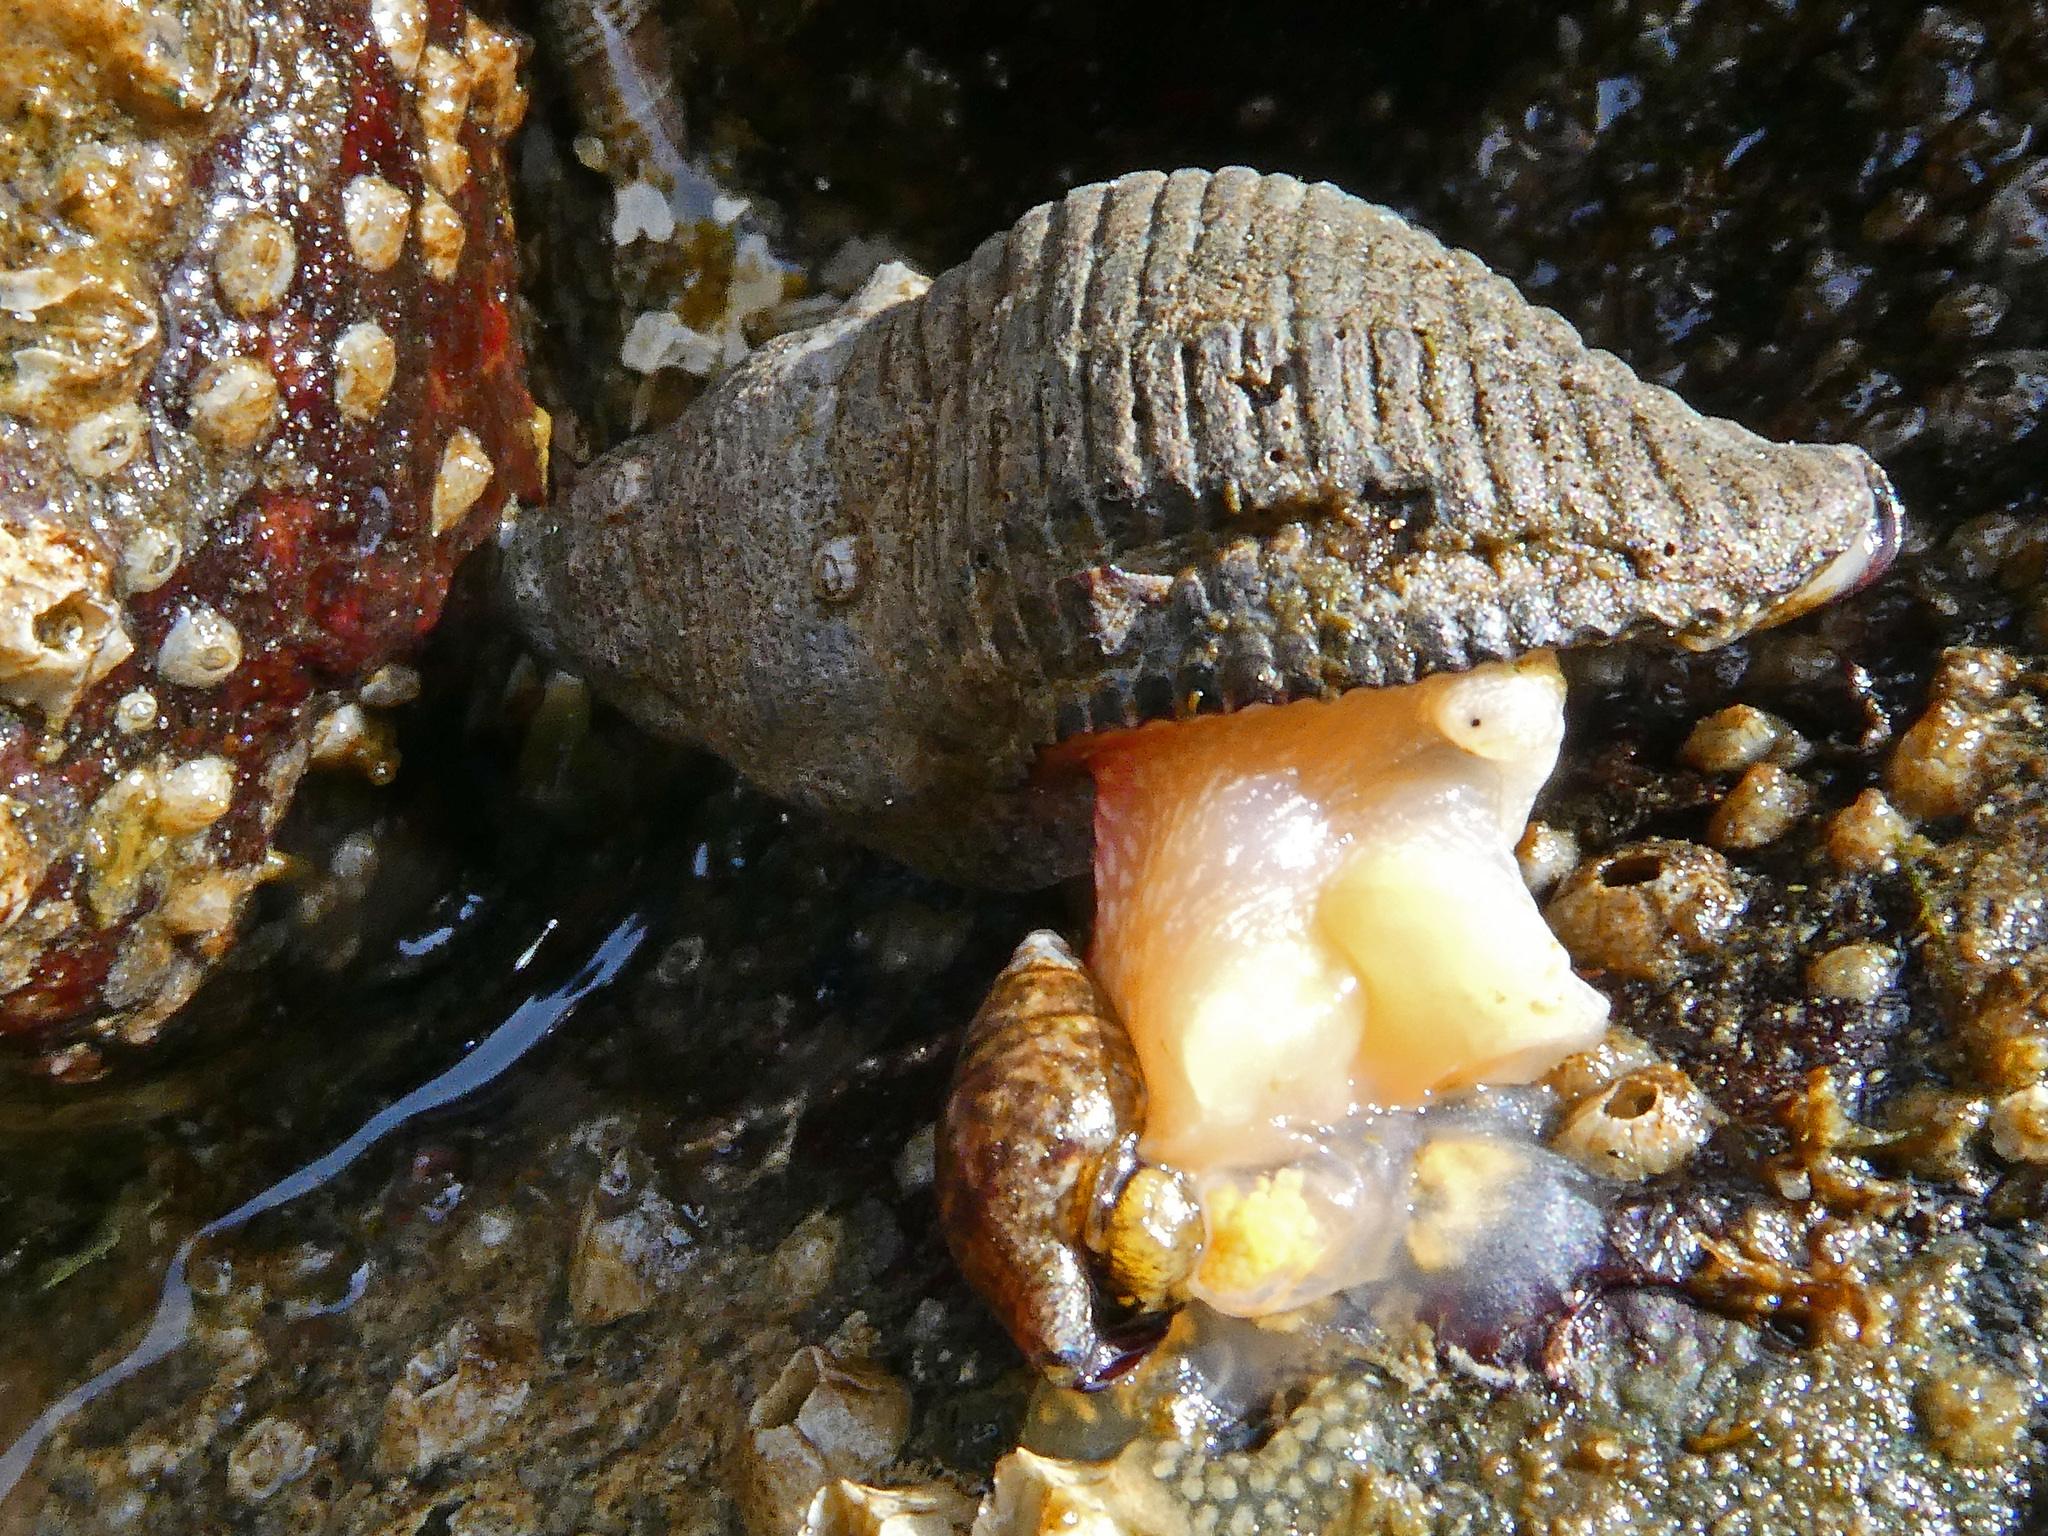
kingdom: Animalia
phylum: Mollusca
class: Gastropoda
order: Neogastropoda
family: Tudiclidae
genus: Lirabuccinum
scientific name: Lirabuccinum dirum
